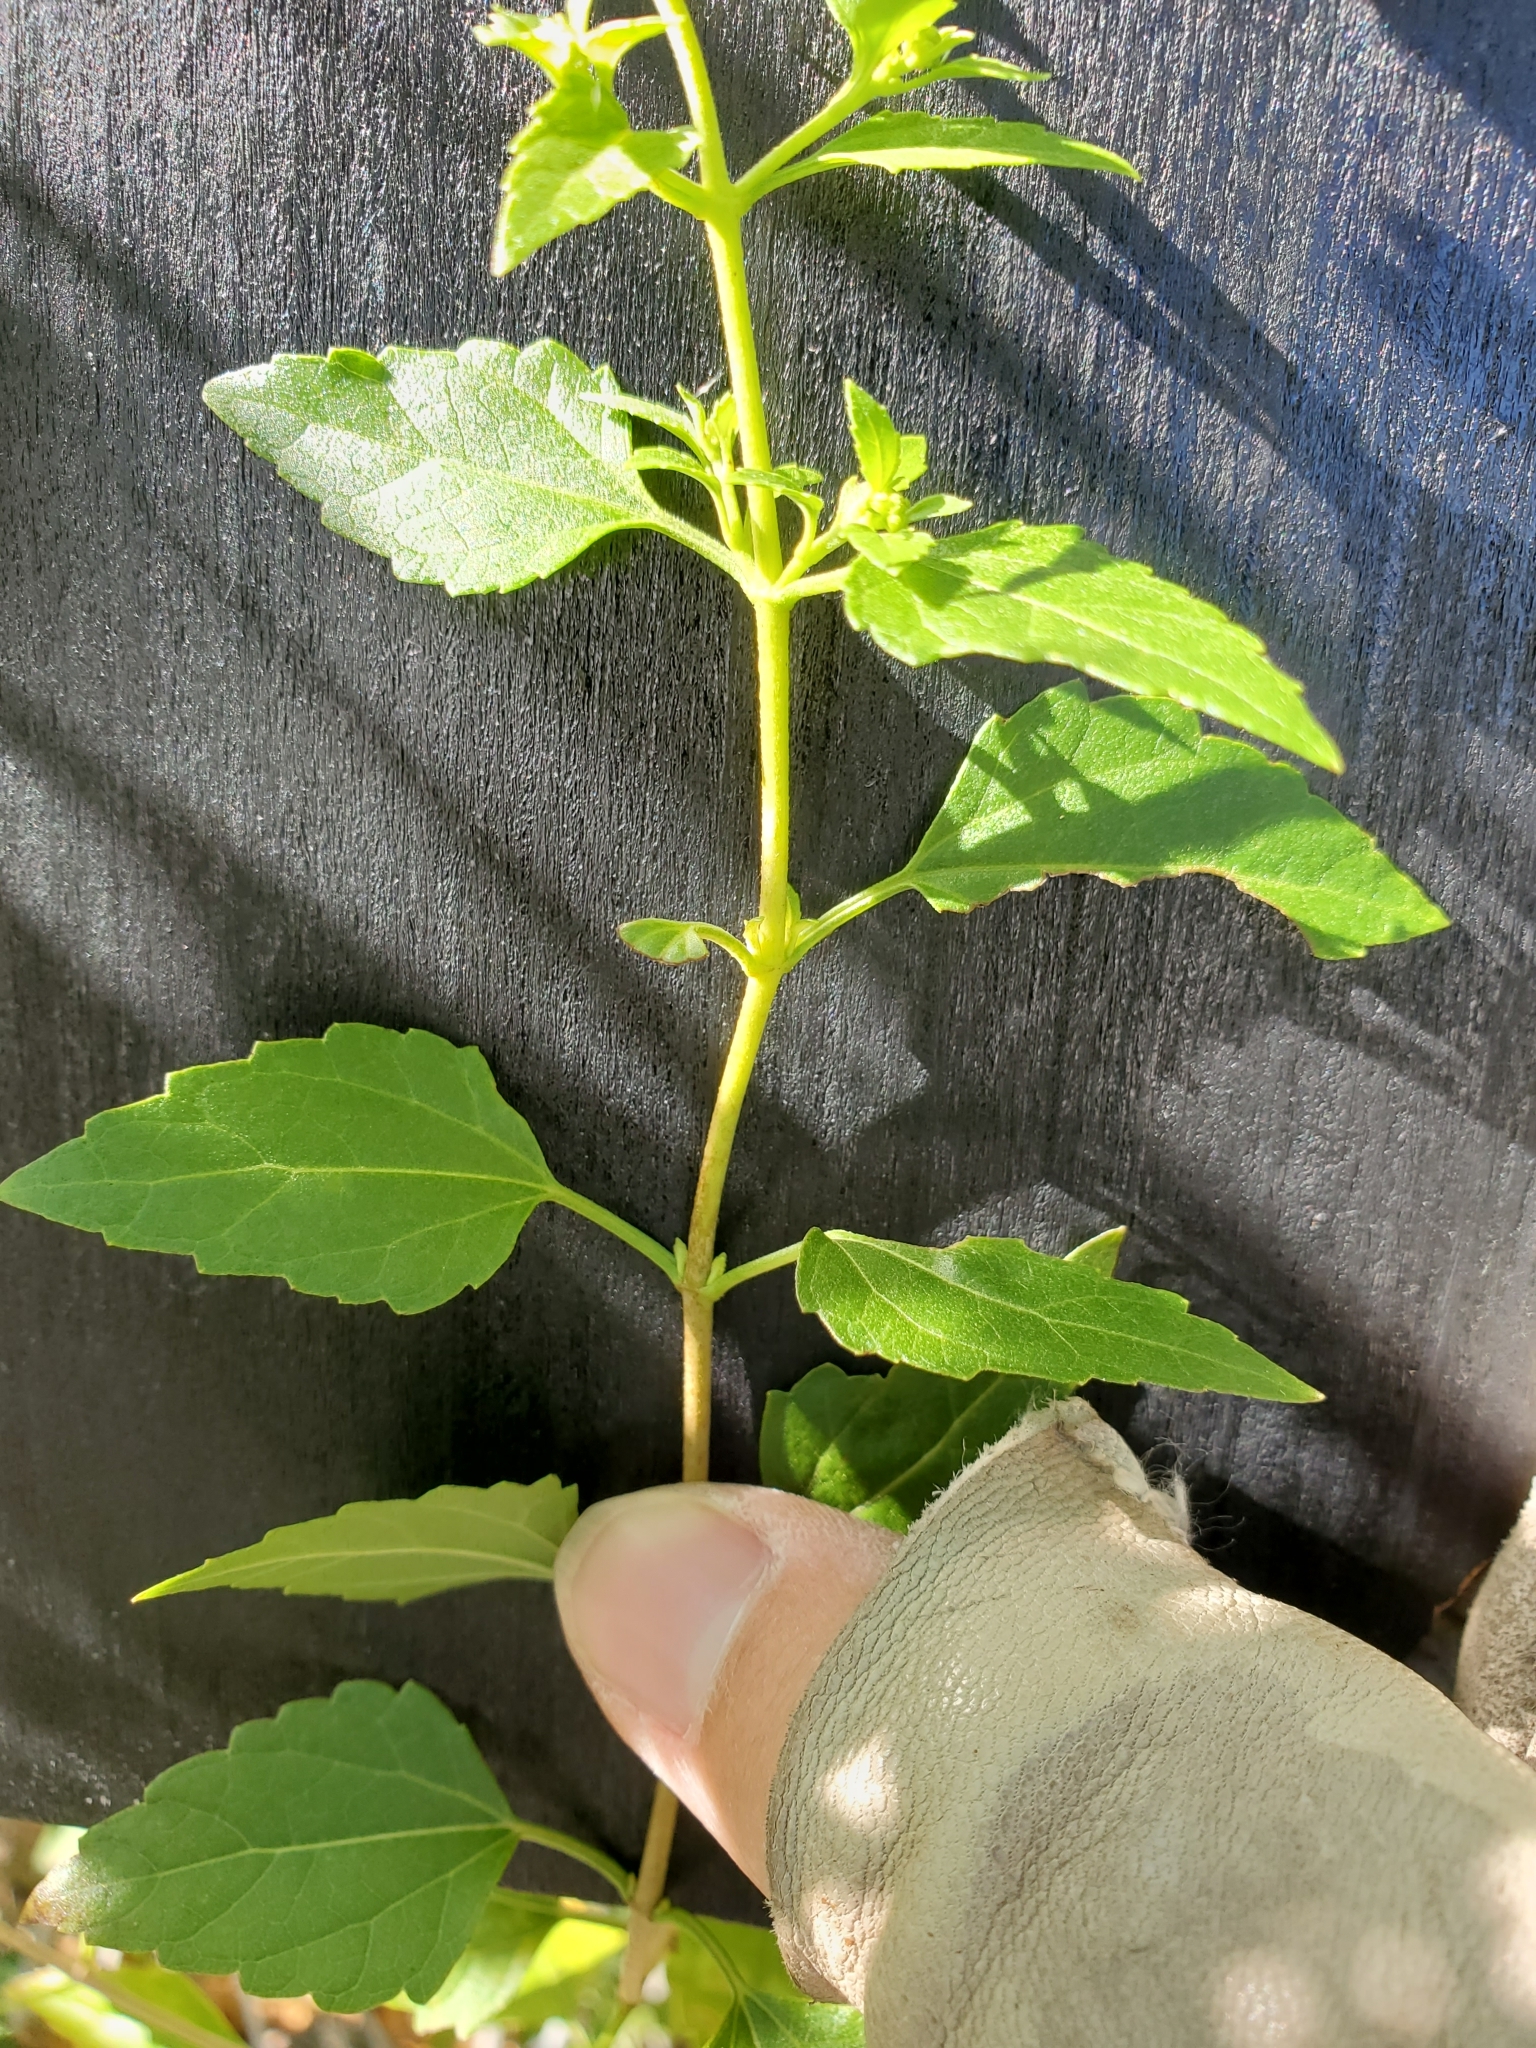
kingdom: Plantae
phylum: Tracheophyta
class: Magnoliopsida
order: Asterales
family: Asteraceae
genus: Ageratina
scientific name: Ageratina havanensis
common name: Havana snakeroot
